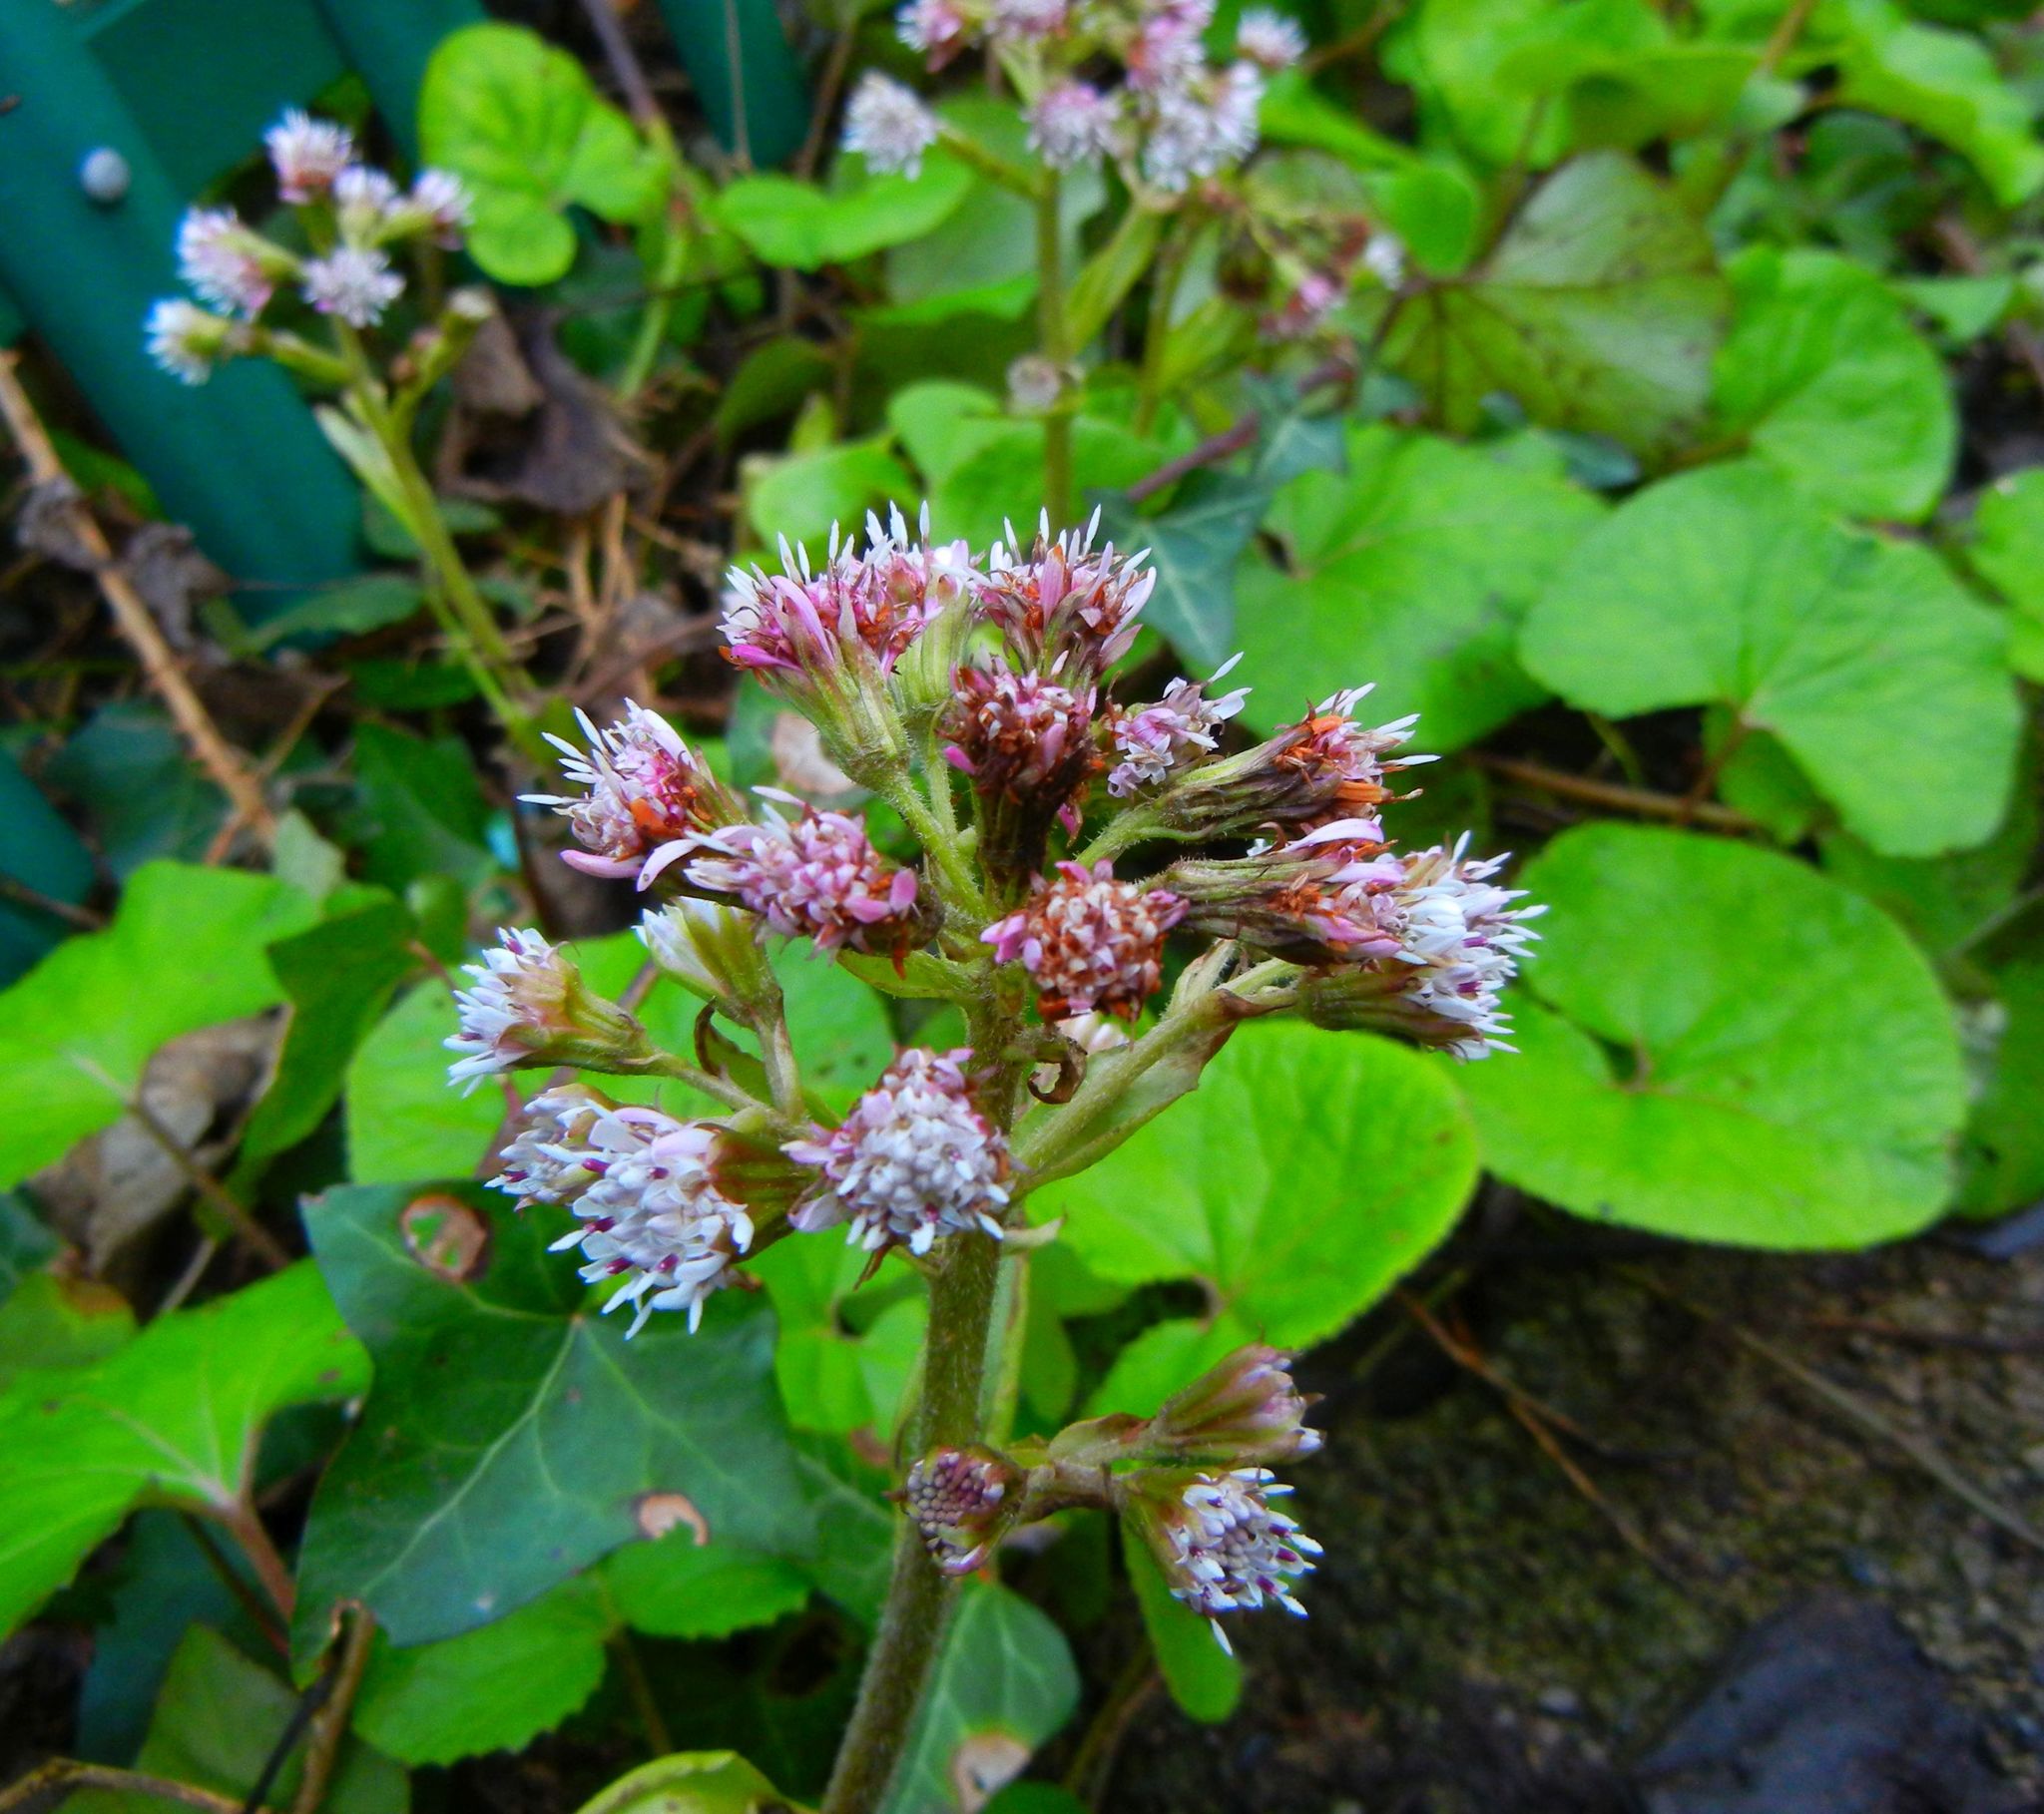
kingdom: Plantae
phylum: Tracheophyta
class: Magnoliopsida
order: Asterales
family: Asteraceae
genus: Petasites
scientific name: Petasites pyrenaicus
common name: Winter heliotrope
